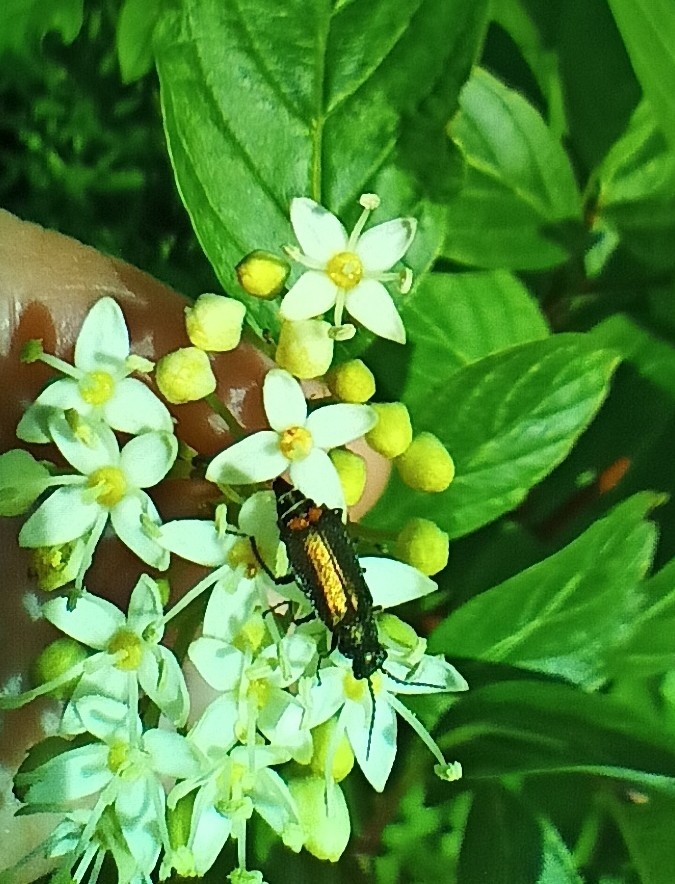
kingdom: Animalia
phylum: Arthropoda
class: Insecta
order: Coleoptera
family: Melyridae
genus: Malachius
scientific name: Malachius bipustulatus
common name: Malachite beetle
